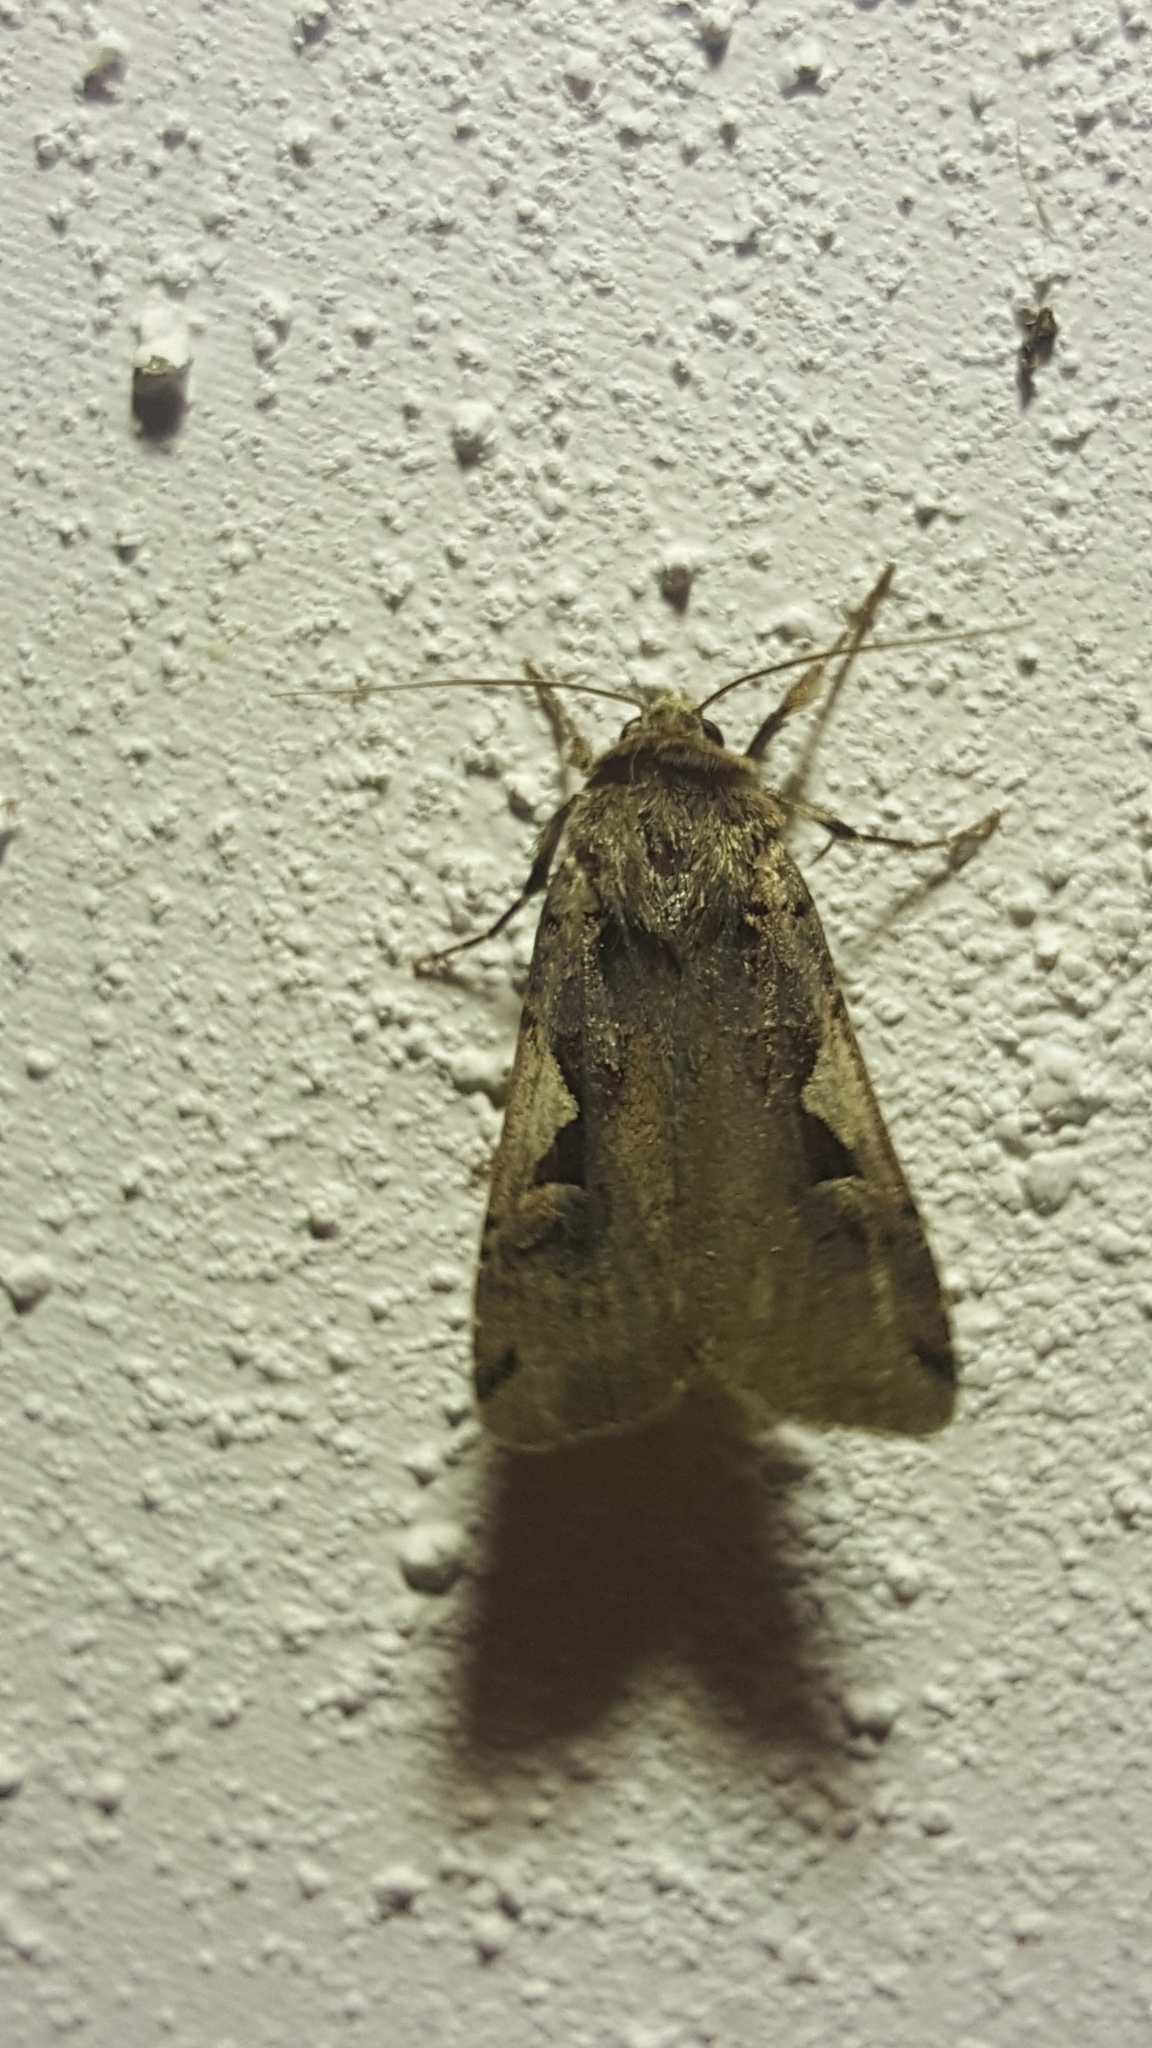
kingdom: Animalia
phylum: Arthropoda
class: Insecta
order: Lepidoptera
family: Noctuidae
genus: Xestia
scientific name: Xestia c-nigrum
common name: Setaceous hebrew character
